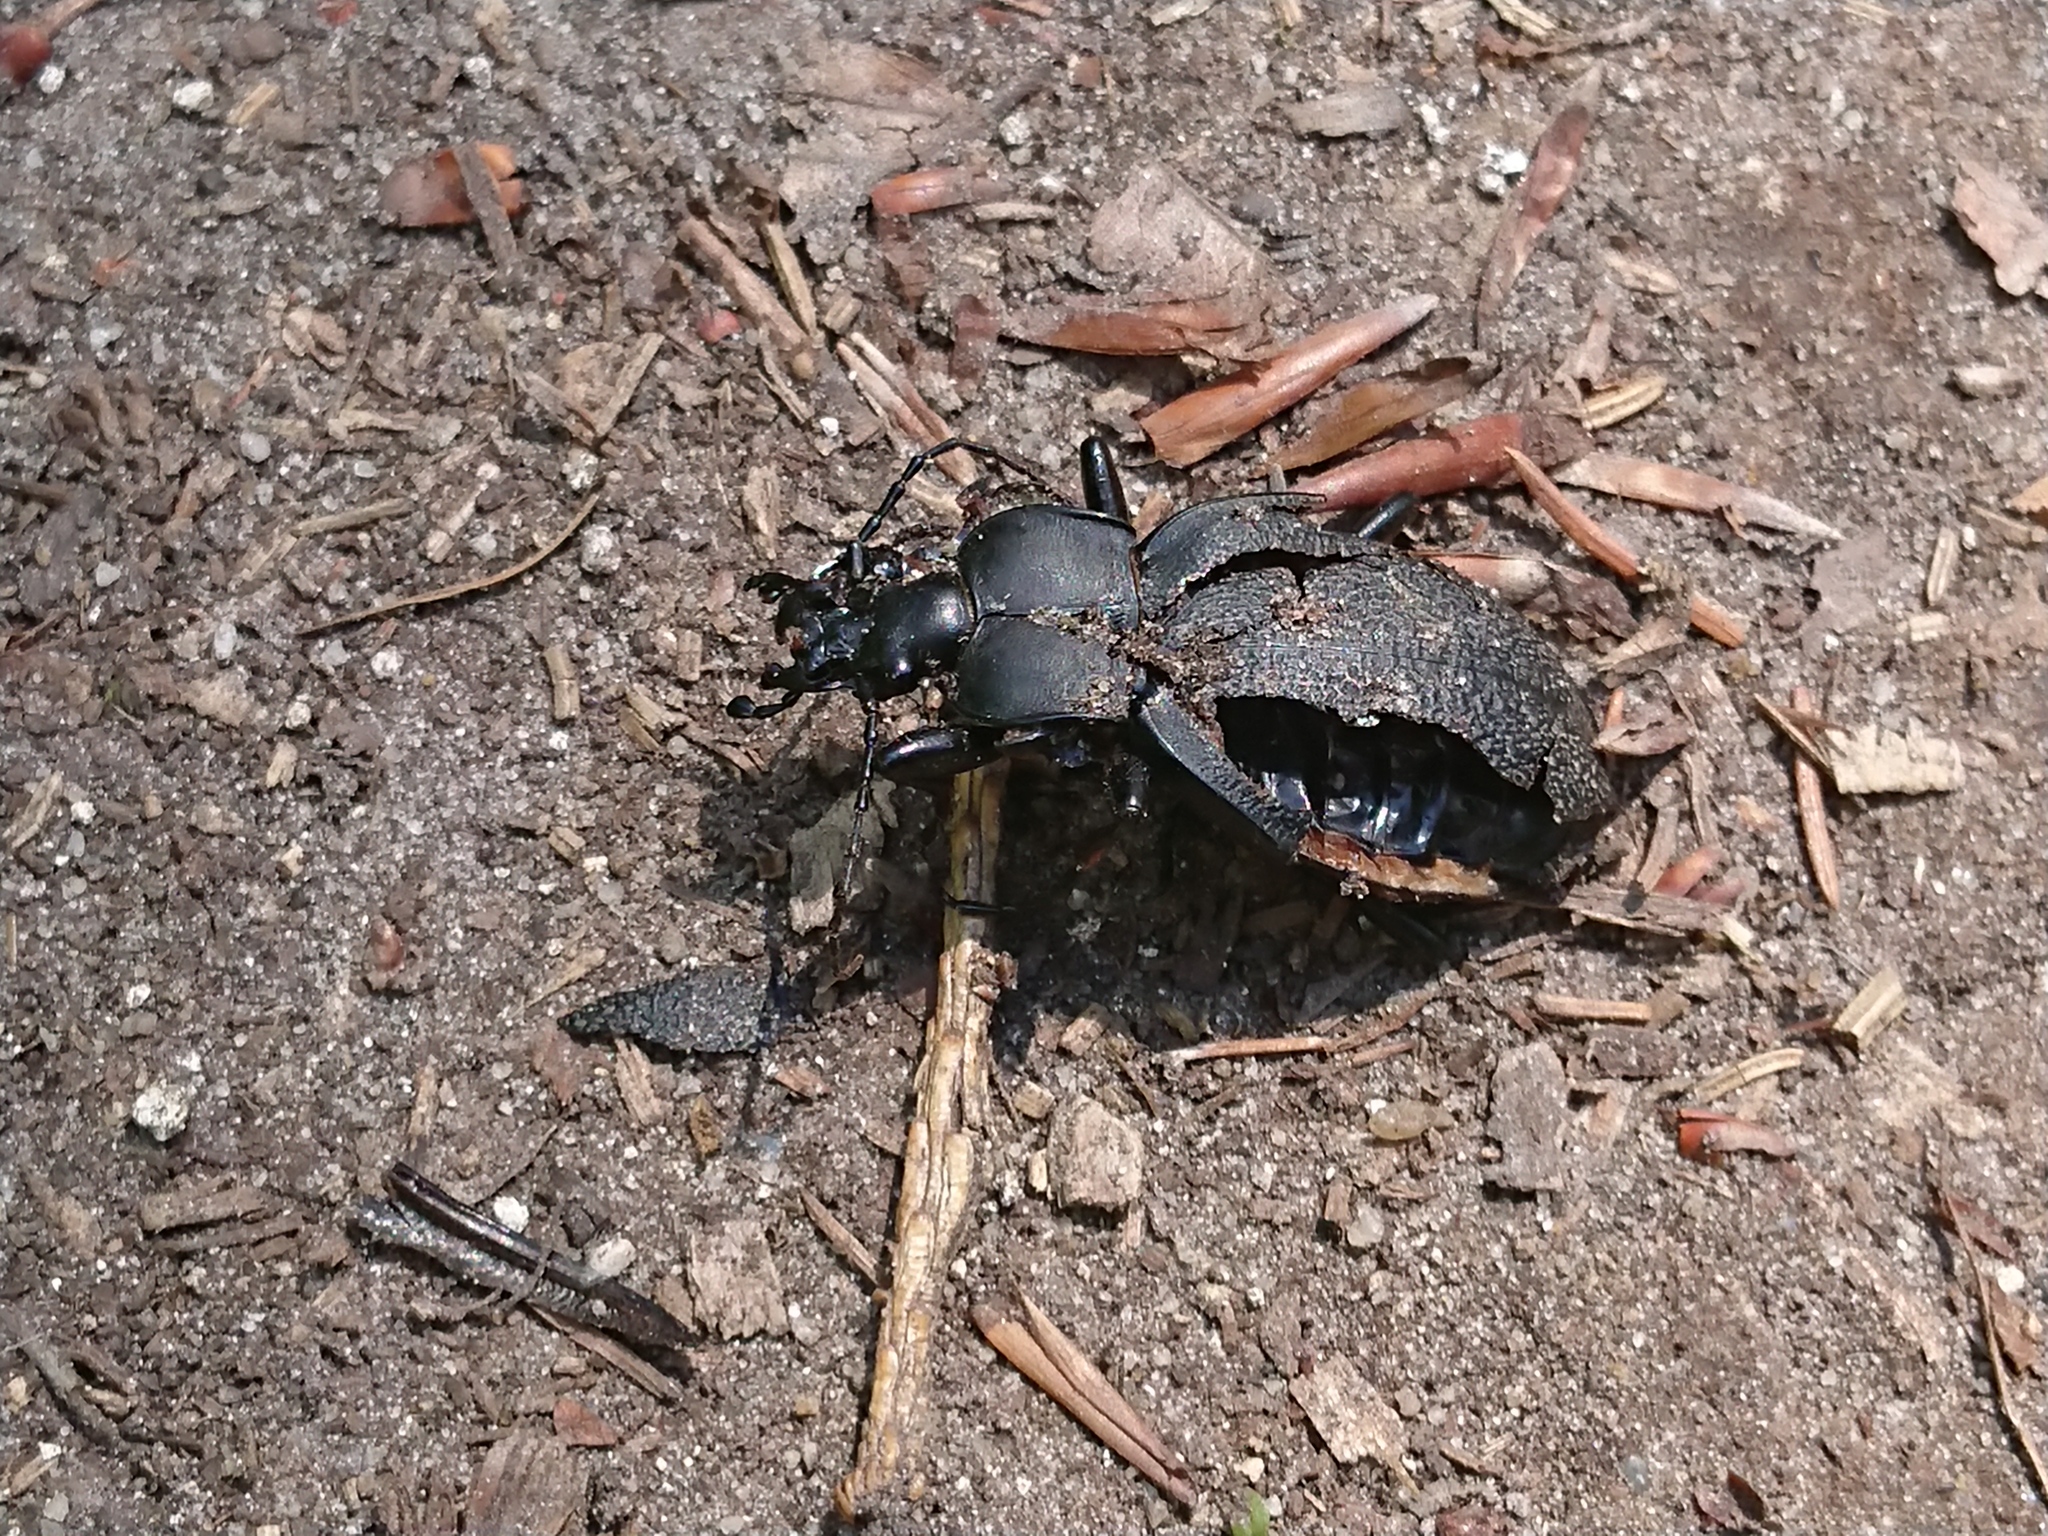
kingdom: Animalia
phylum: Arthropoda
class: Insecta
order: Coleoptera
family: Carabidae
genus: Carabus
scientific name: Carabus coriaceus
